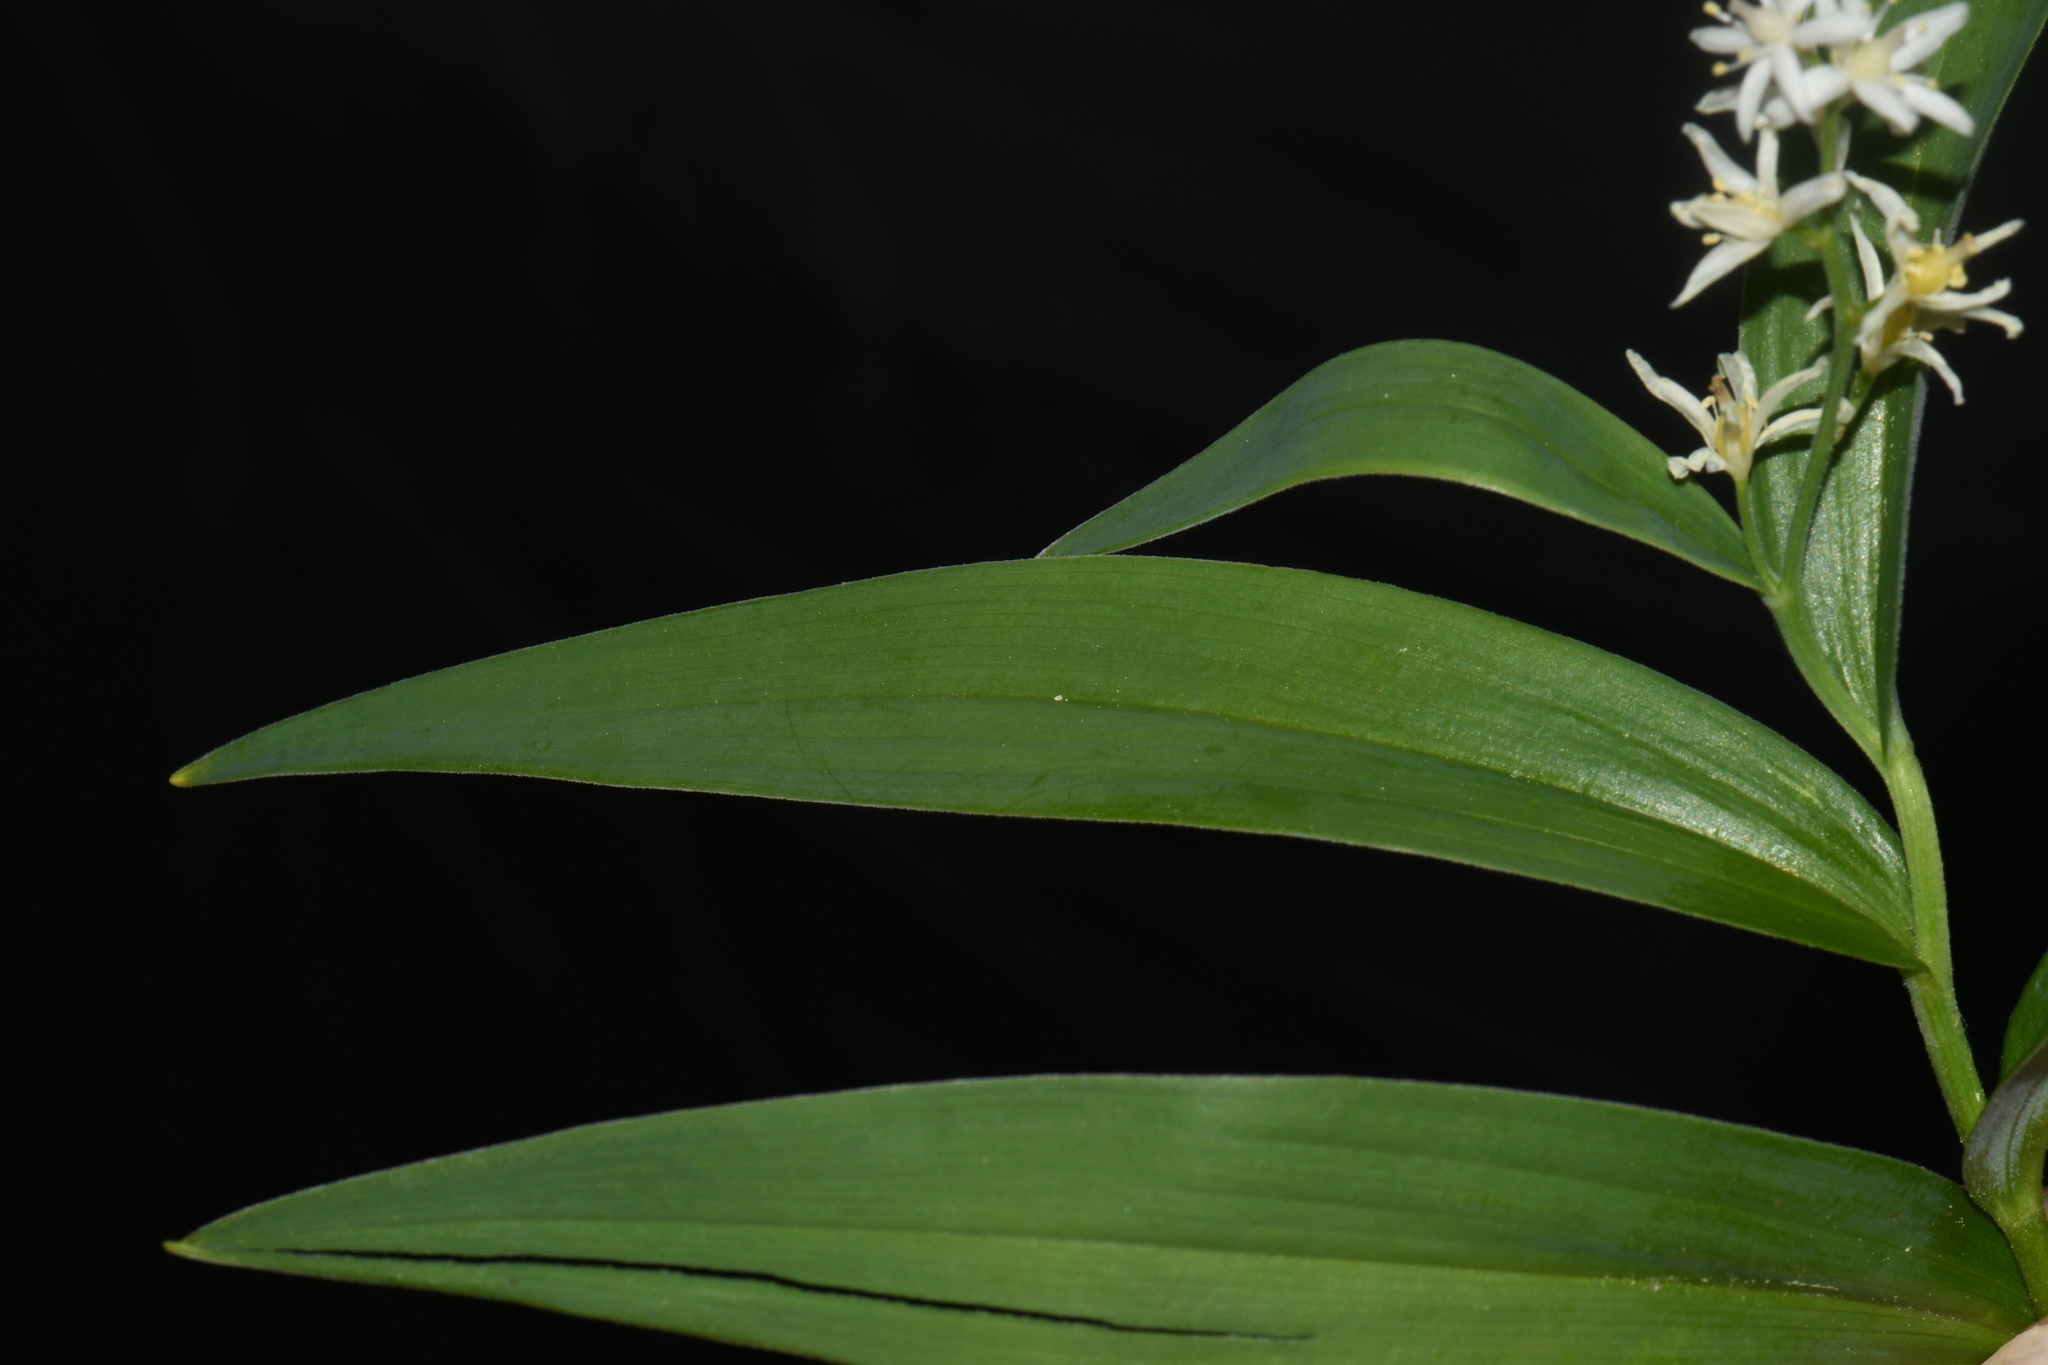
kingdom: Plantae
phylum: Tracheophyta
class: Liliopsida
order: Asparagales
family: Asparagaceae
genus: Maianthemum
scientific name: Maianthemum stellatum
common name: Little false solomon's seal
